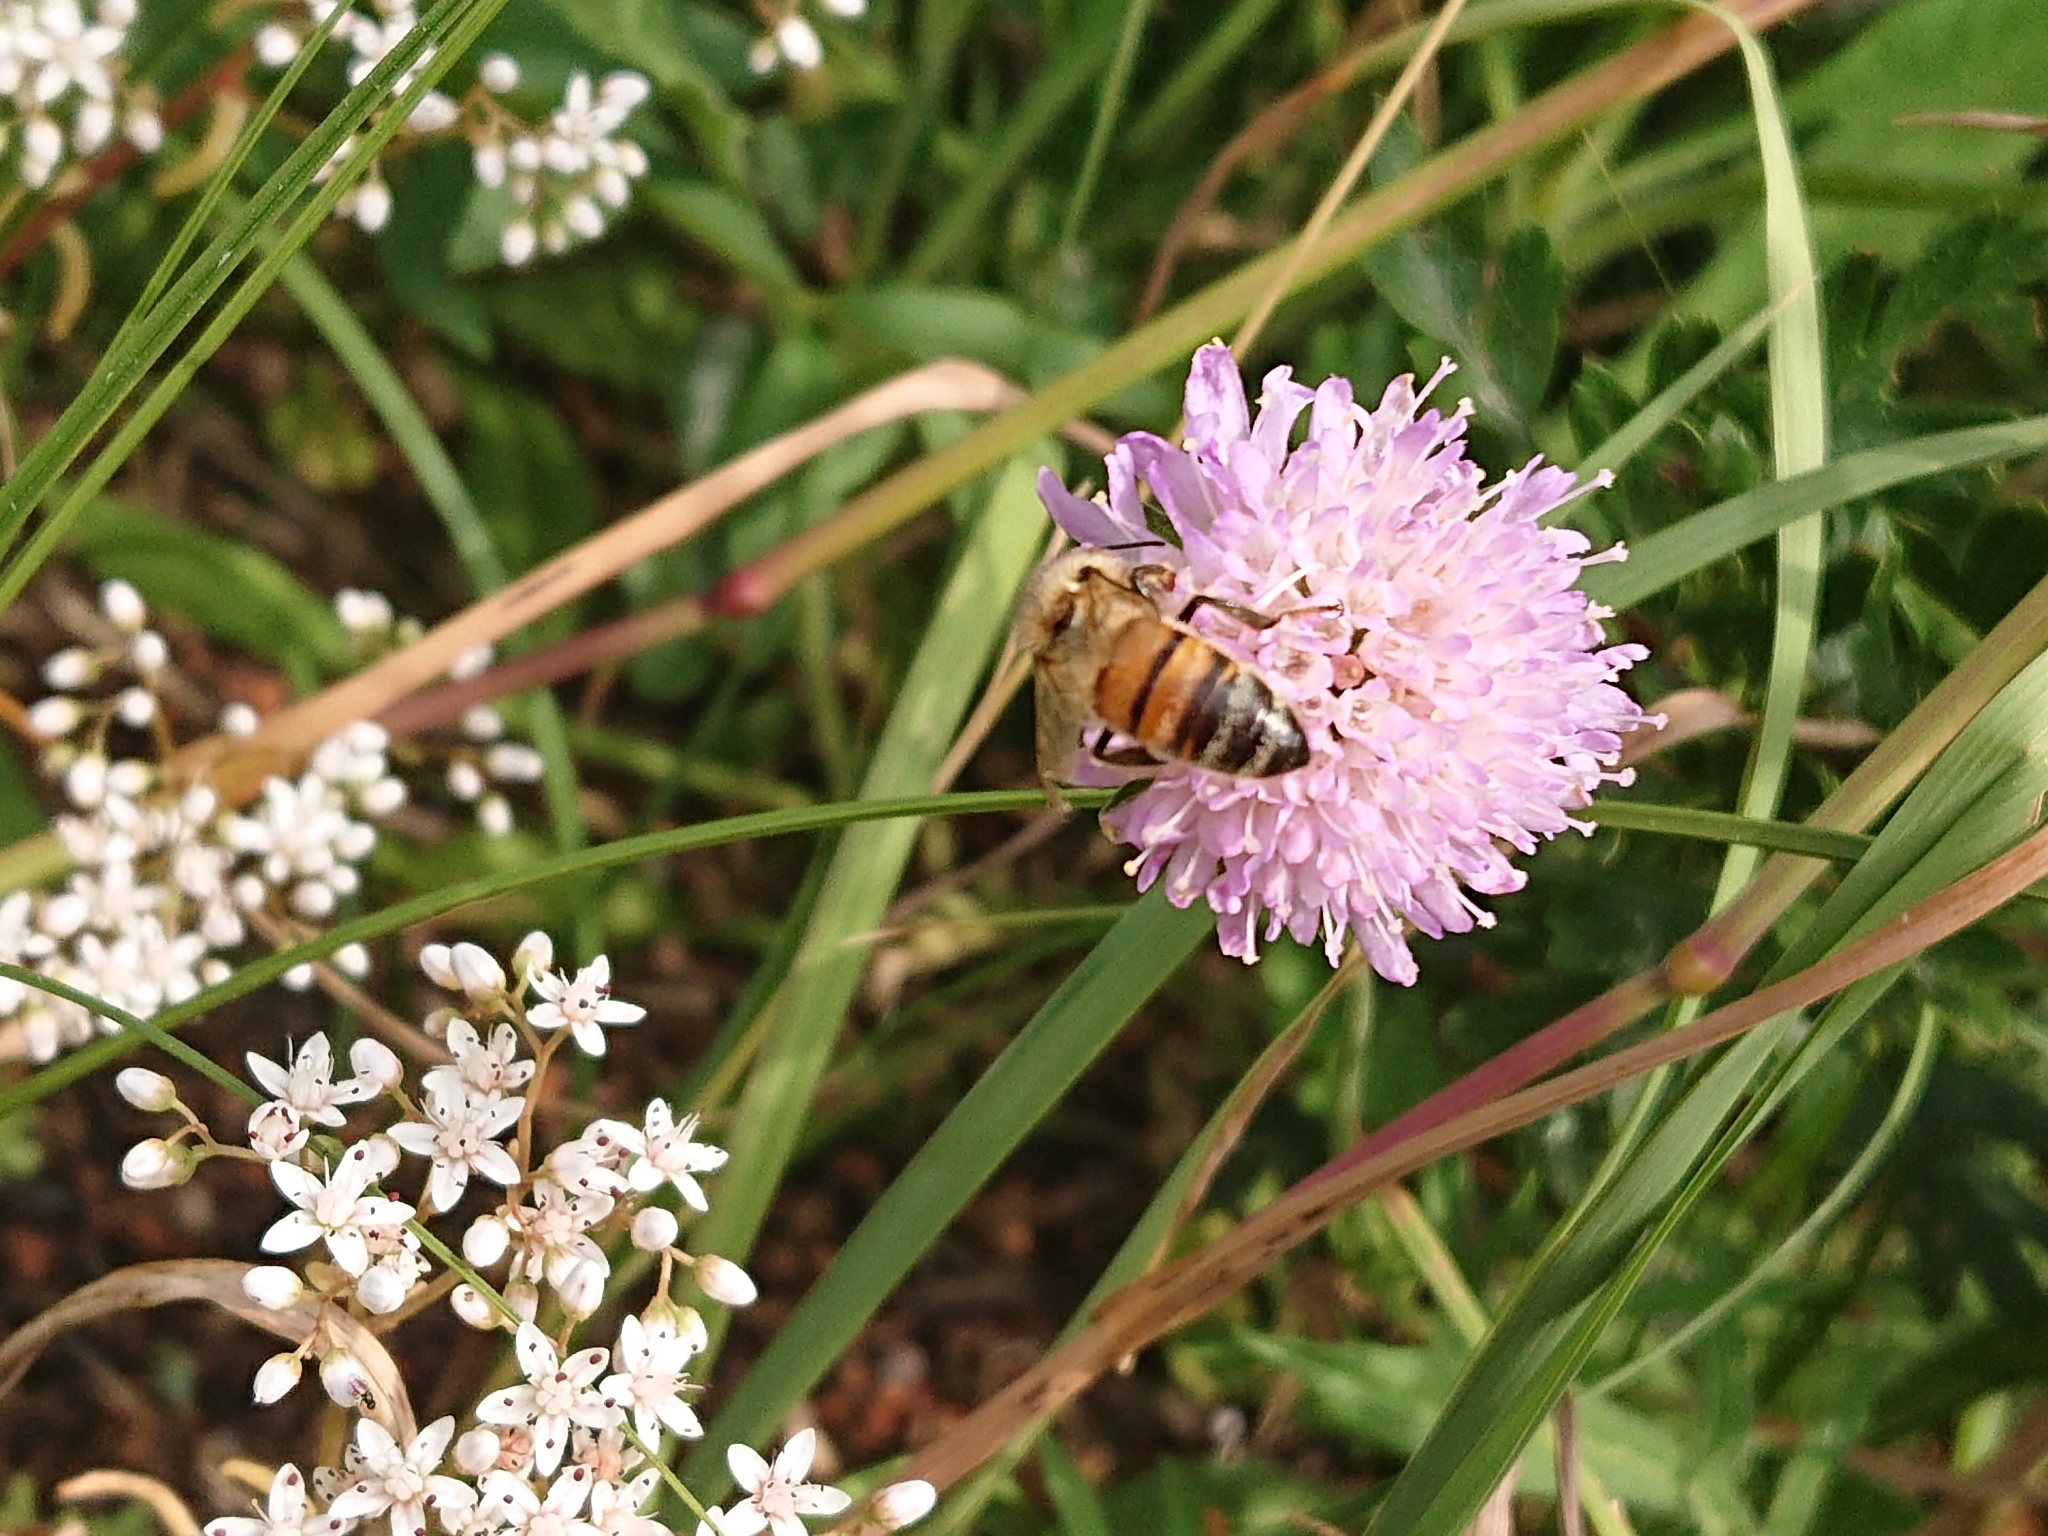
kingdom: Animalia
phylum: Arthropoda
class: Insecta
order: Hymenoptera
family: Apidae
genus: Apis
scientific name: Apis mellifera
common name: Honey bee
